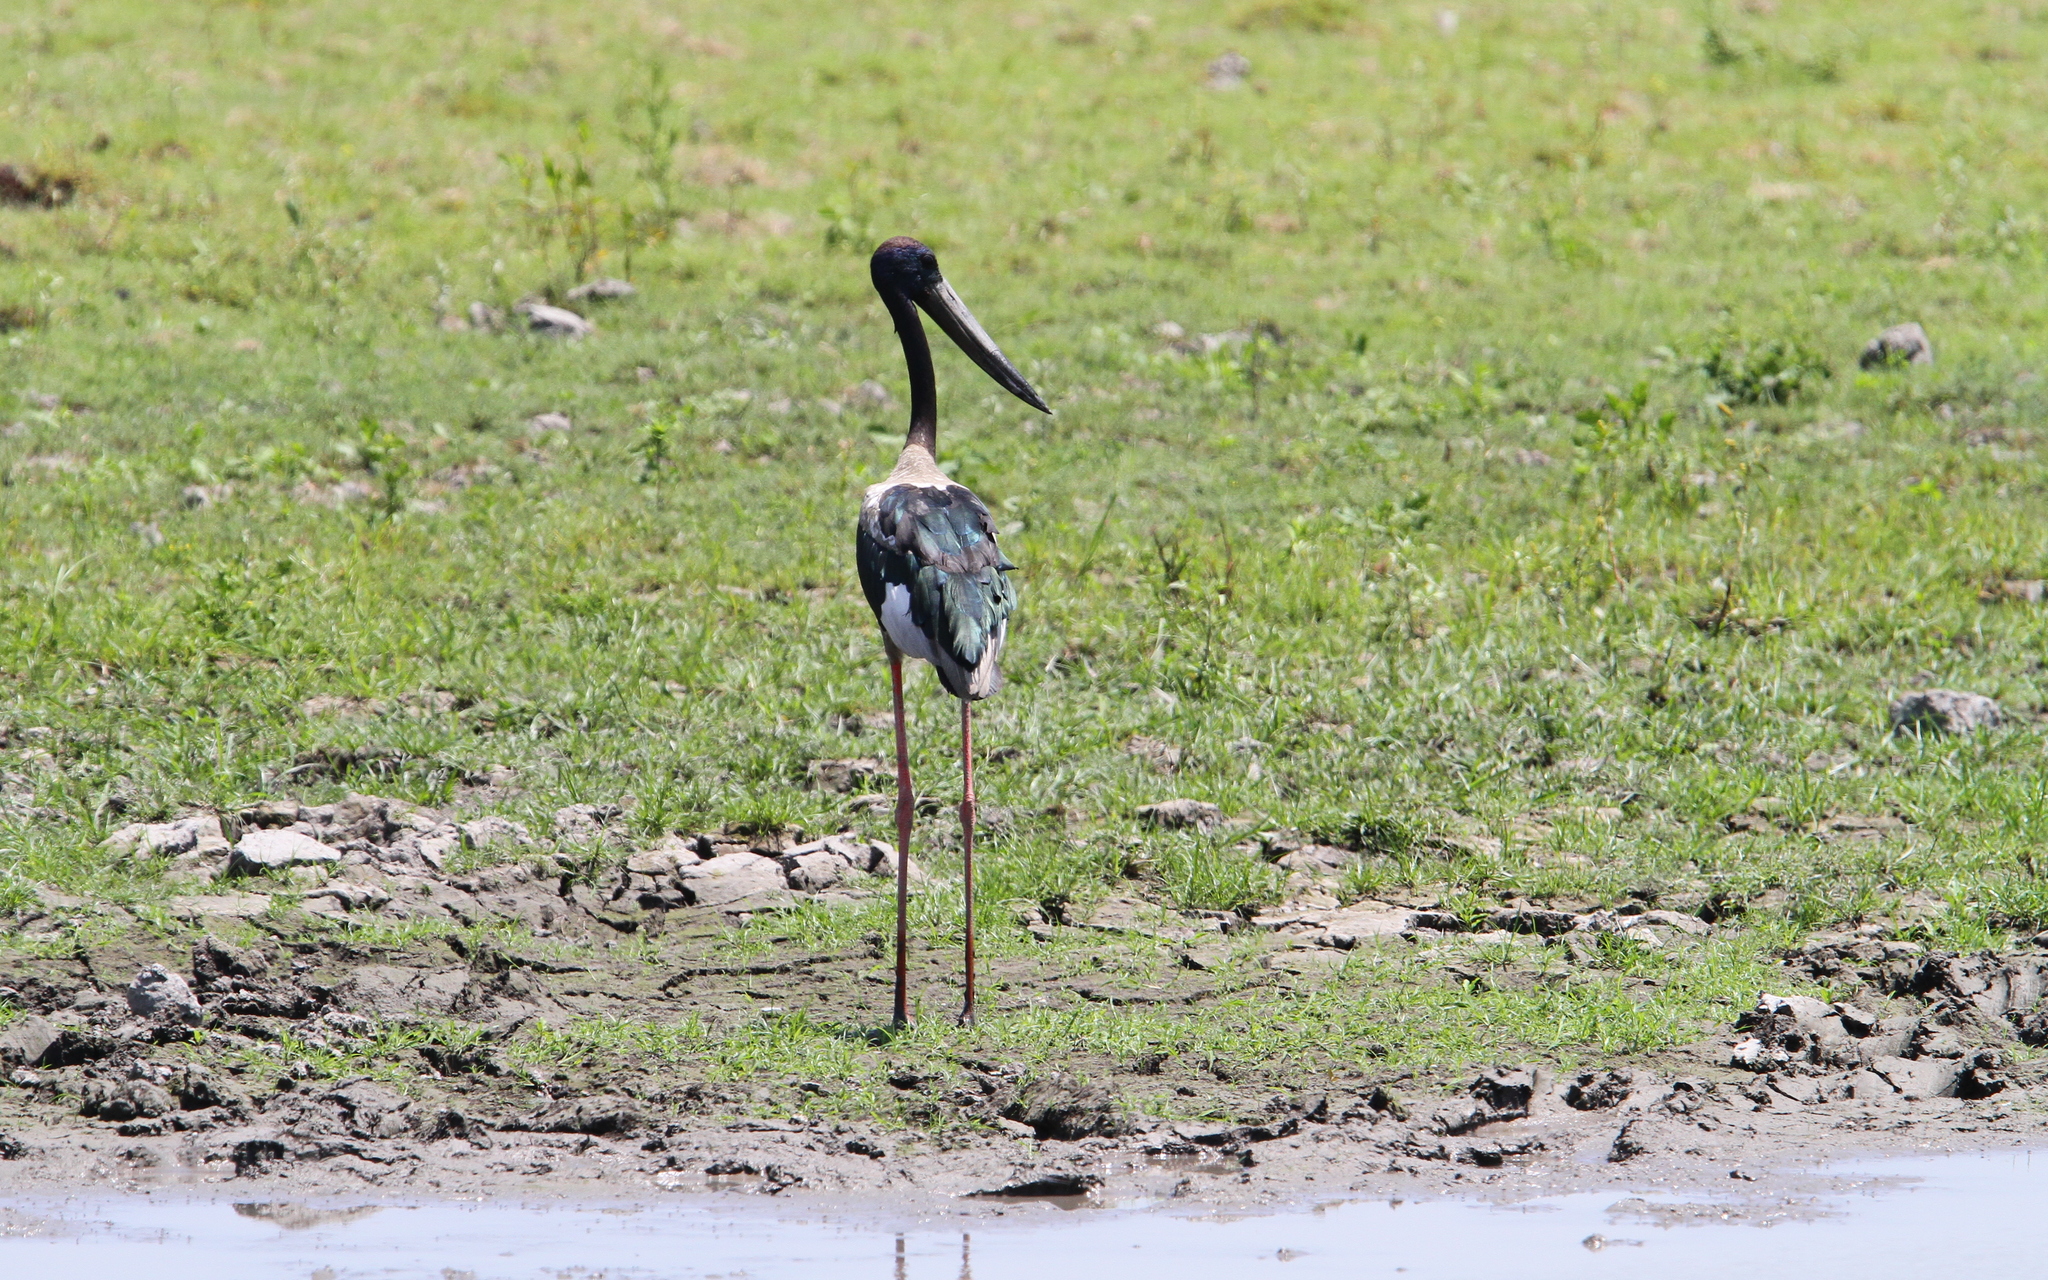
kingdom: Animalia
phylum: Chordata
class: Aves
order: Ciconiiformes
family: Ciconiidae
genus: Ephippiorhynchus
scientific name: Ephippiorhynchus asiaticus
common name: Black-necked stork
